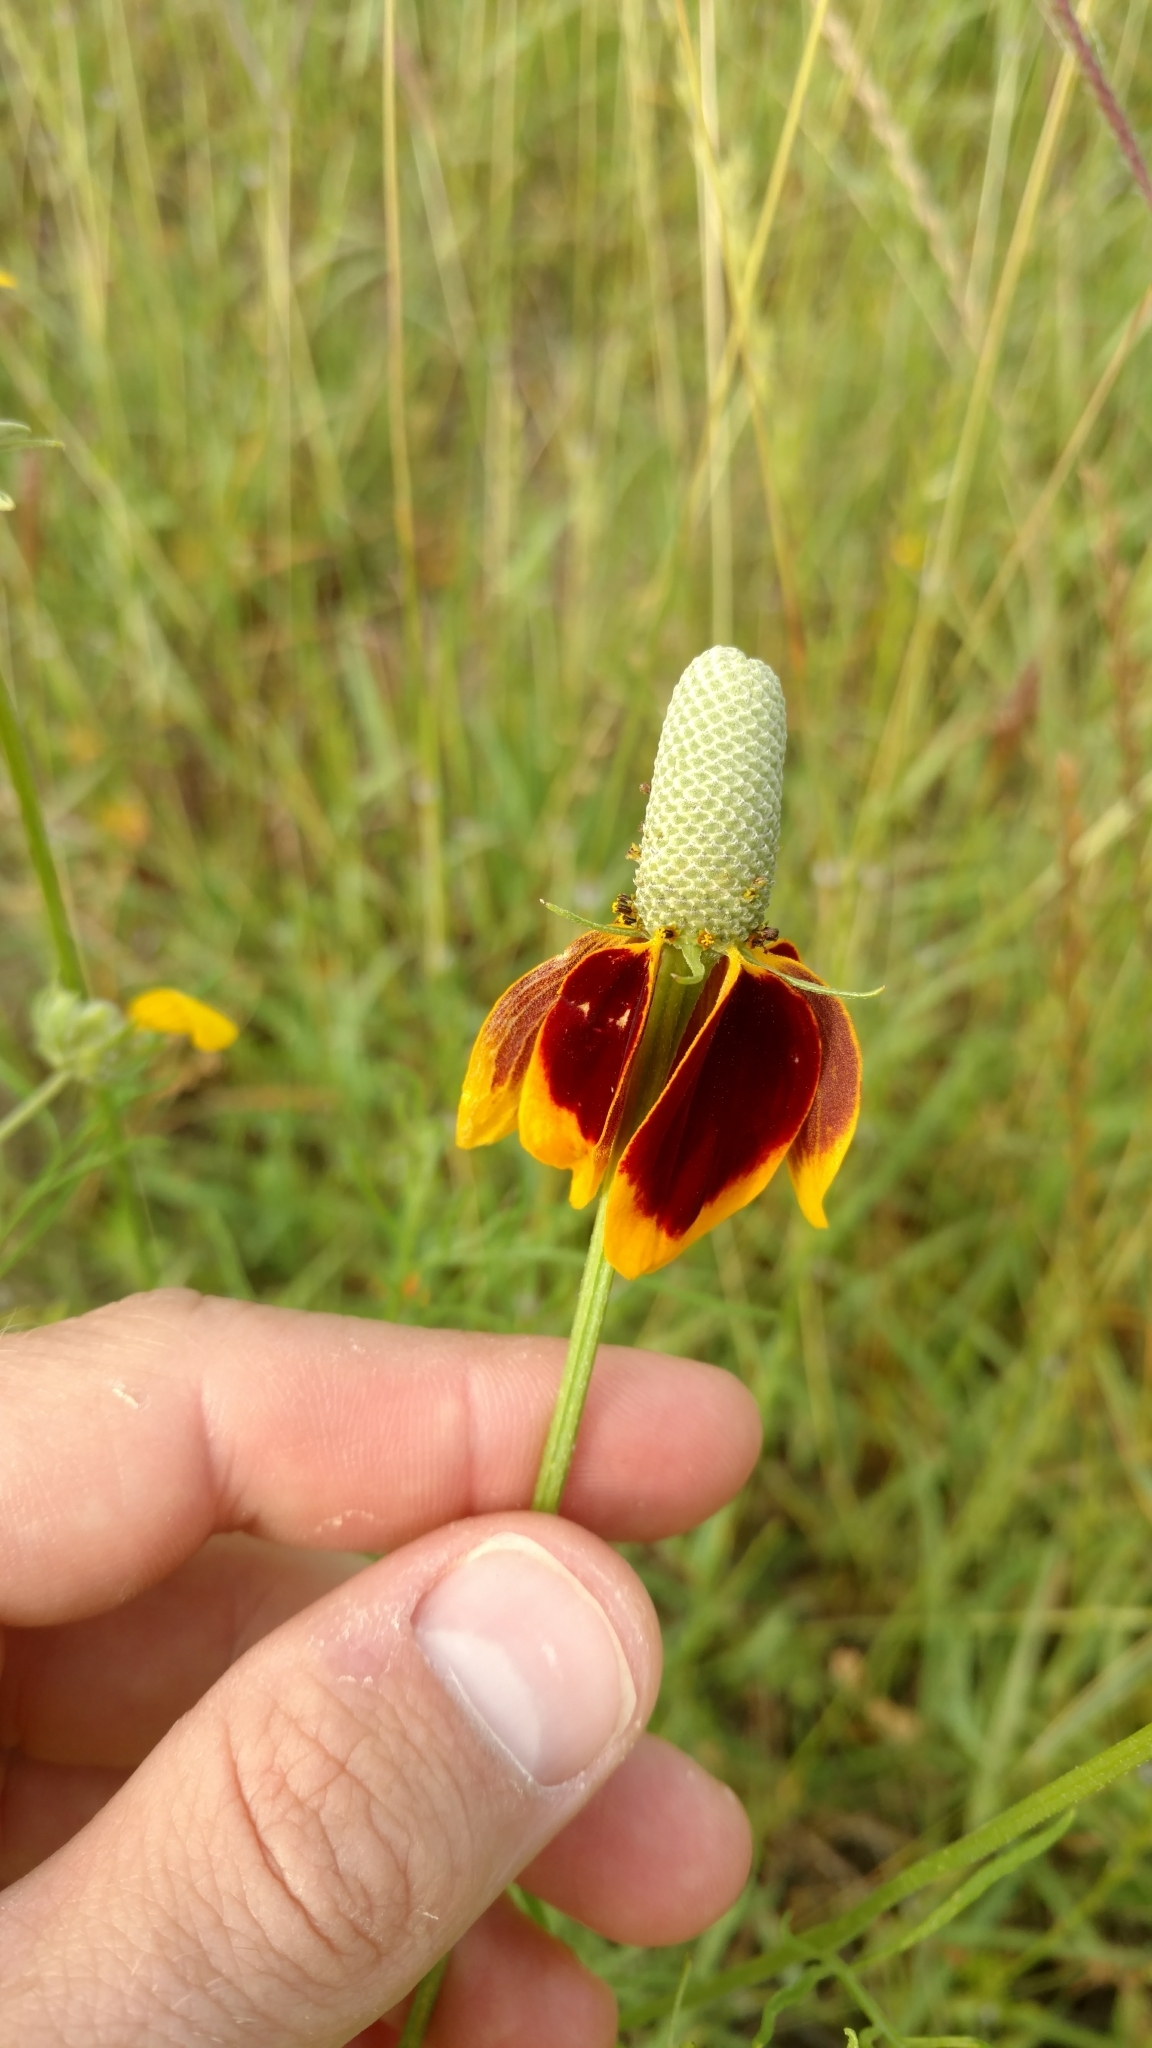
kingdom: Plantae
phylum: Tracheophyta
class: Magnoliopsida
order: Asterales
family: Asteraceae
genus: Ratibida
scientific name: Ratibida columnifera
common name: Prairie coneflower
